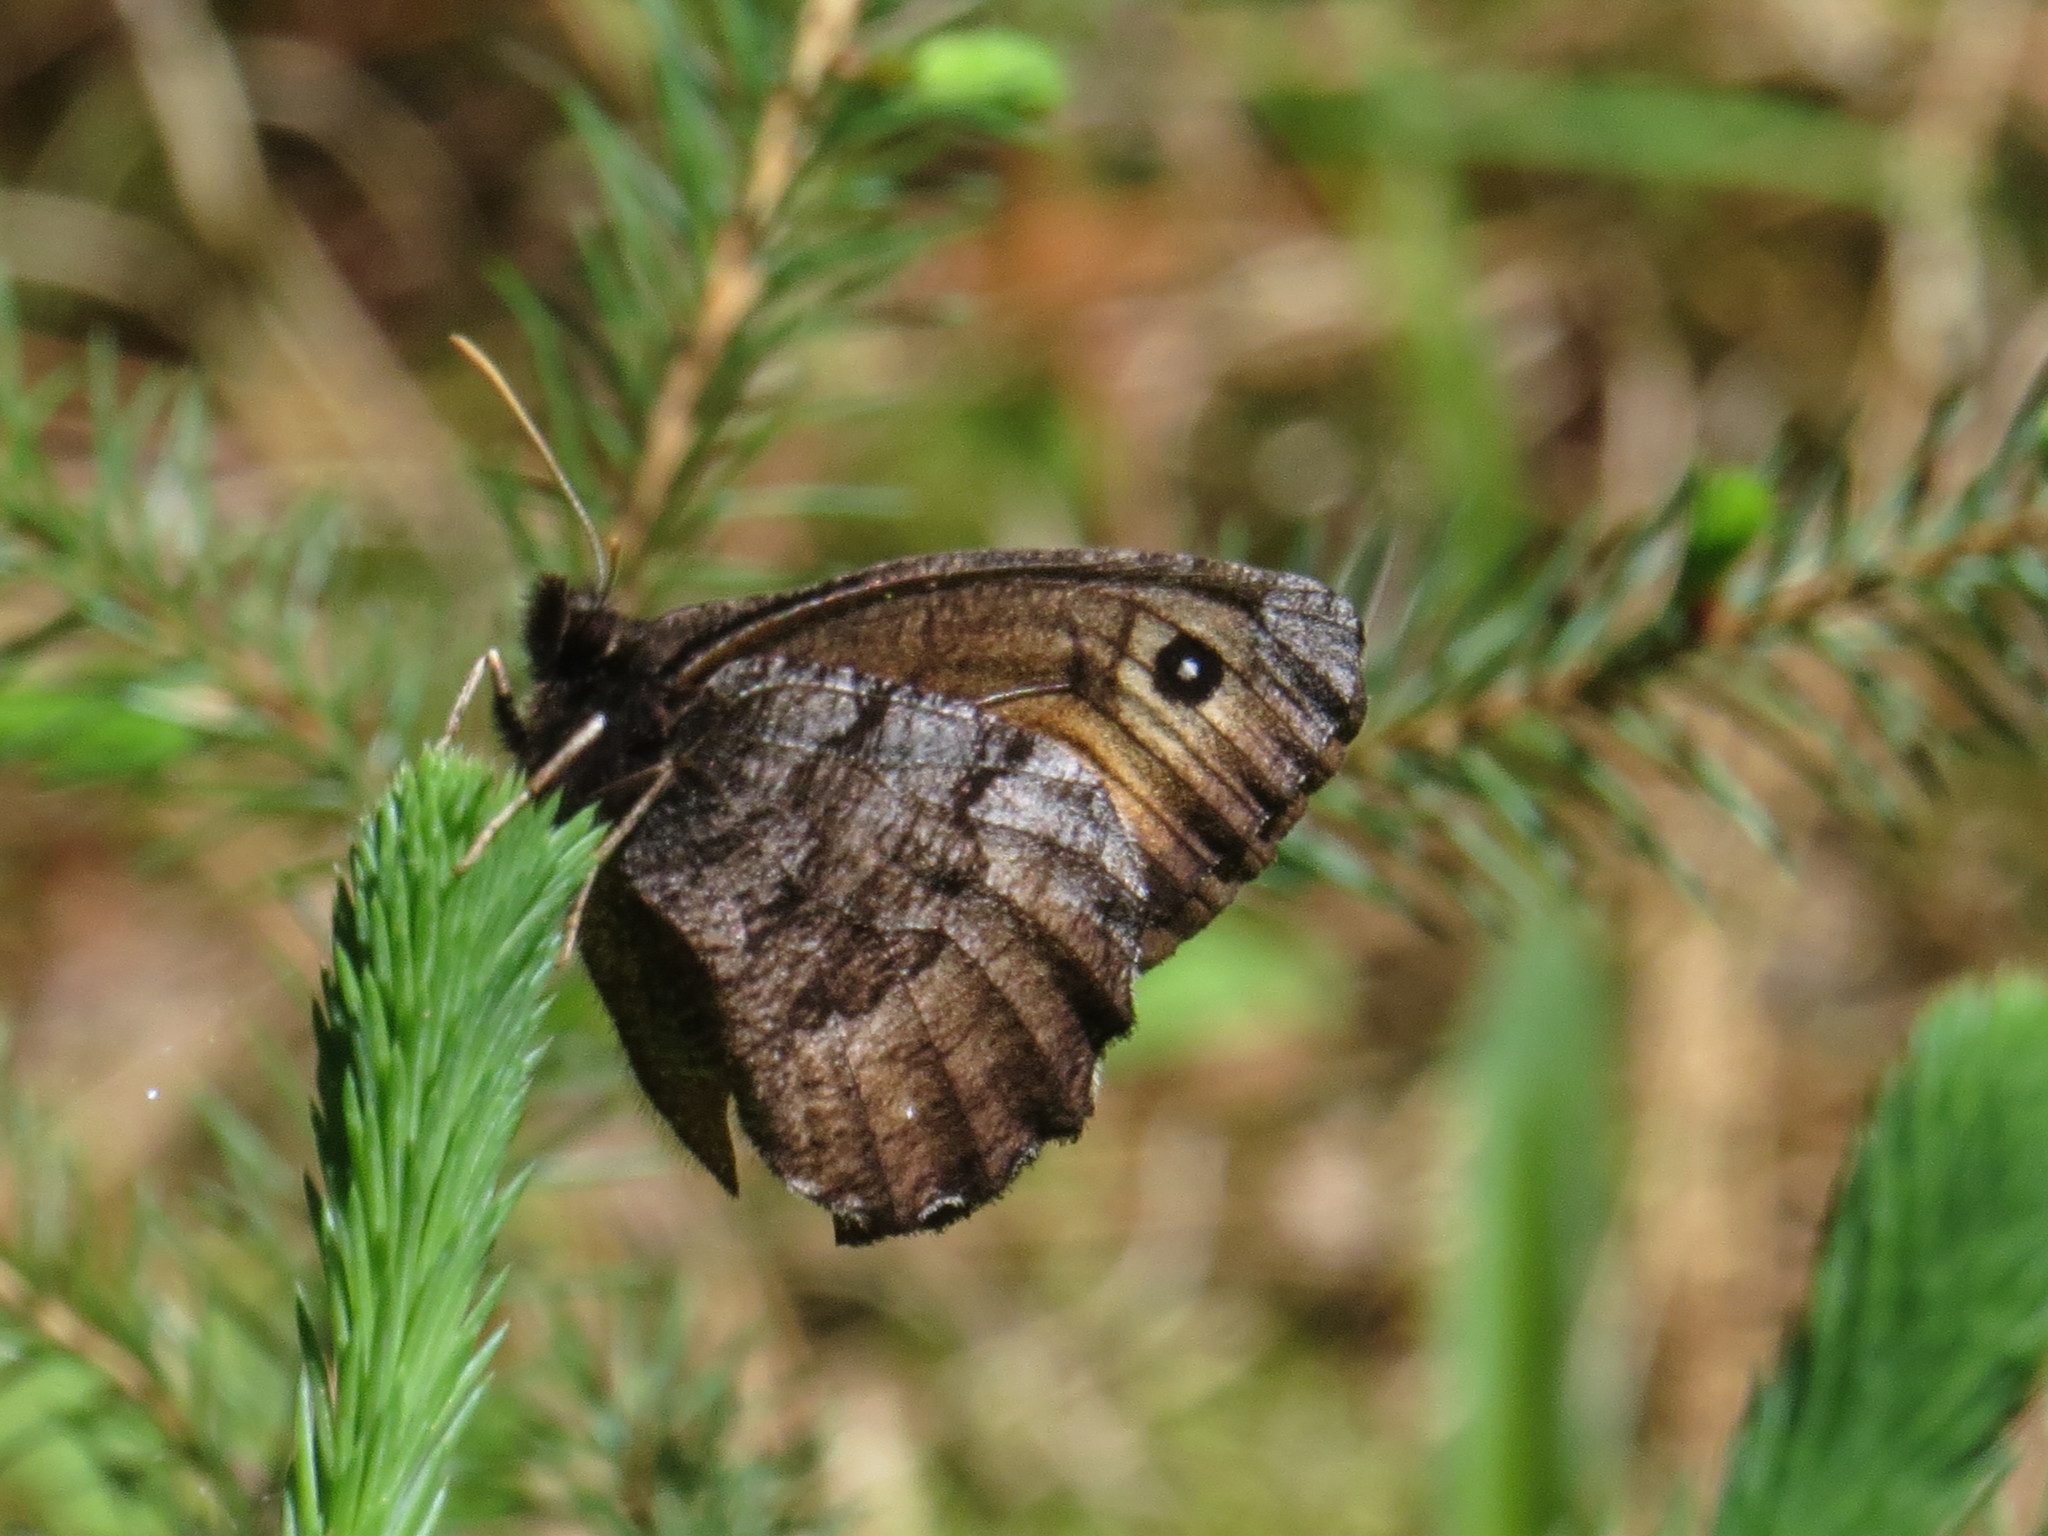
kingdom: Animalia
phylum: Arthropoda
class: Insecta
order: Lepidoptera
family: Nymphalidae
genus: Oeneis
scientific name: Oeneis macounii
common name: Macoun's arctic
